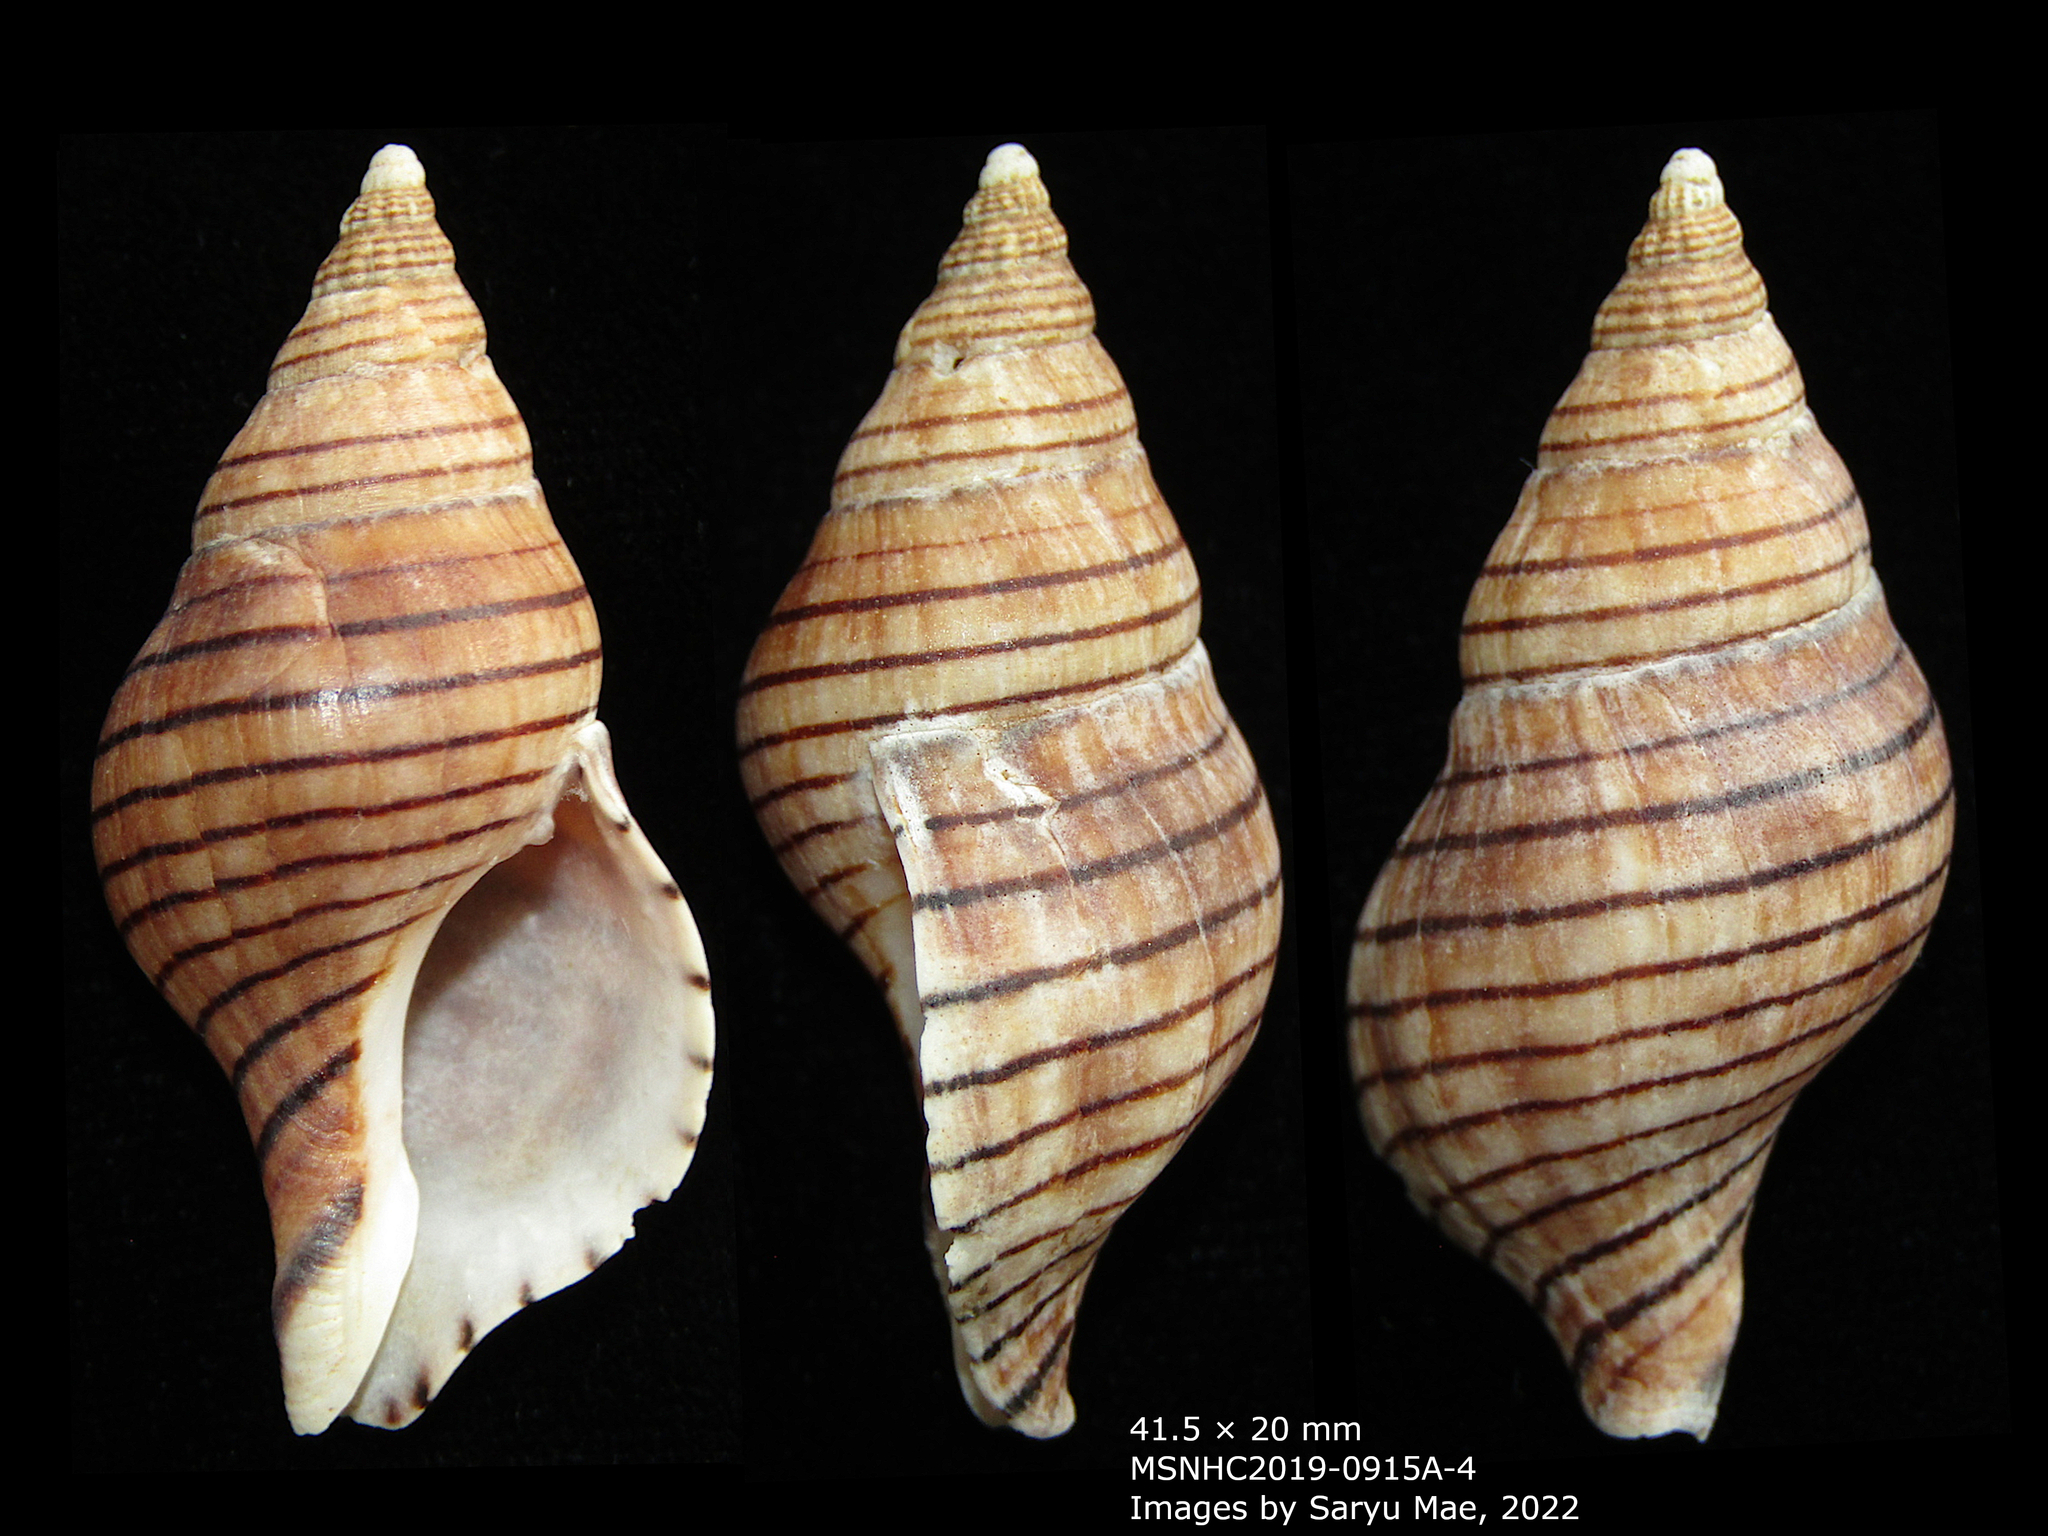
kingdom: Animalia
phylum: Mollusca
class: Gastropoda
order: Neogastropoda
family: Tudiclidae
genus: Buccinulum
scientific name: Buccinulum pallidum
